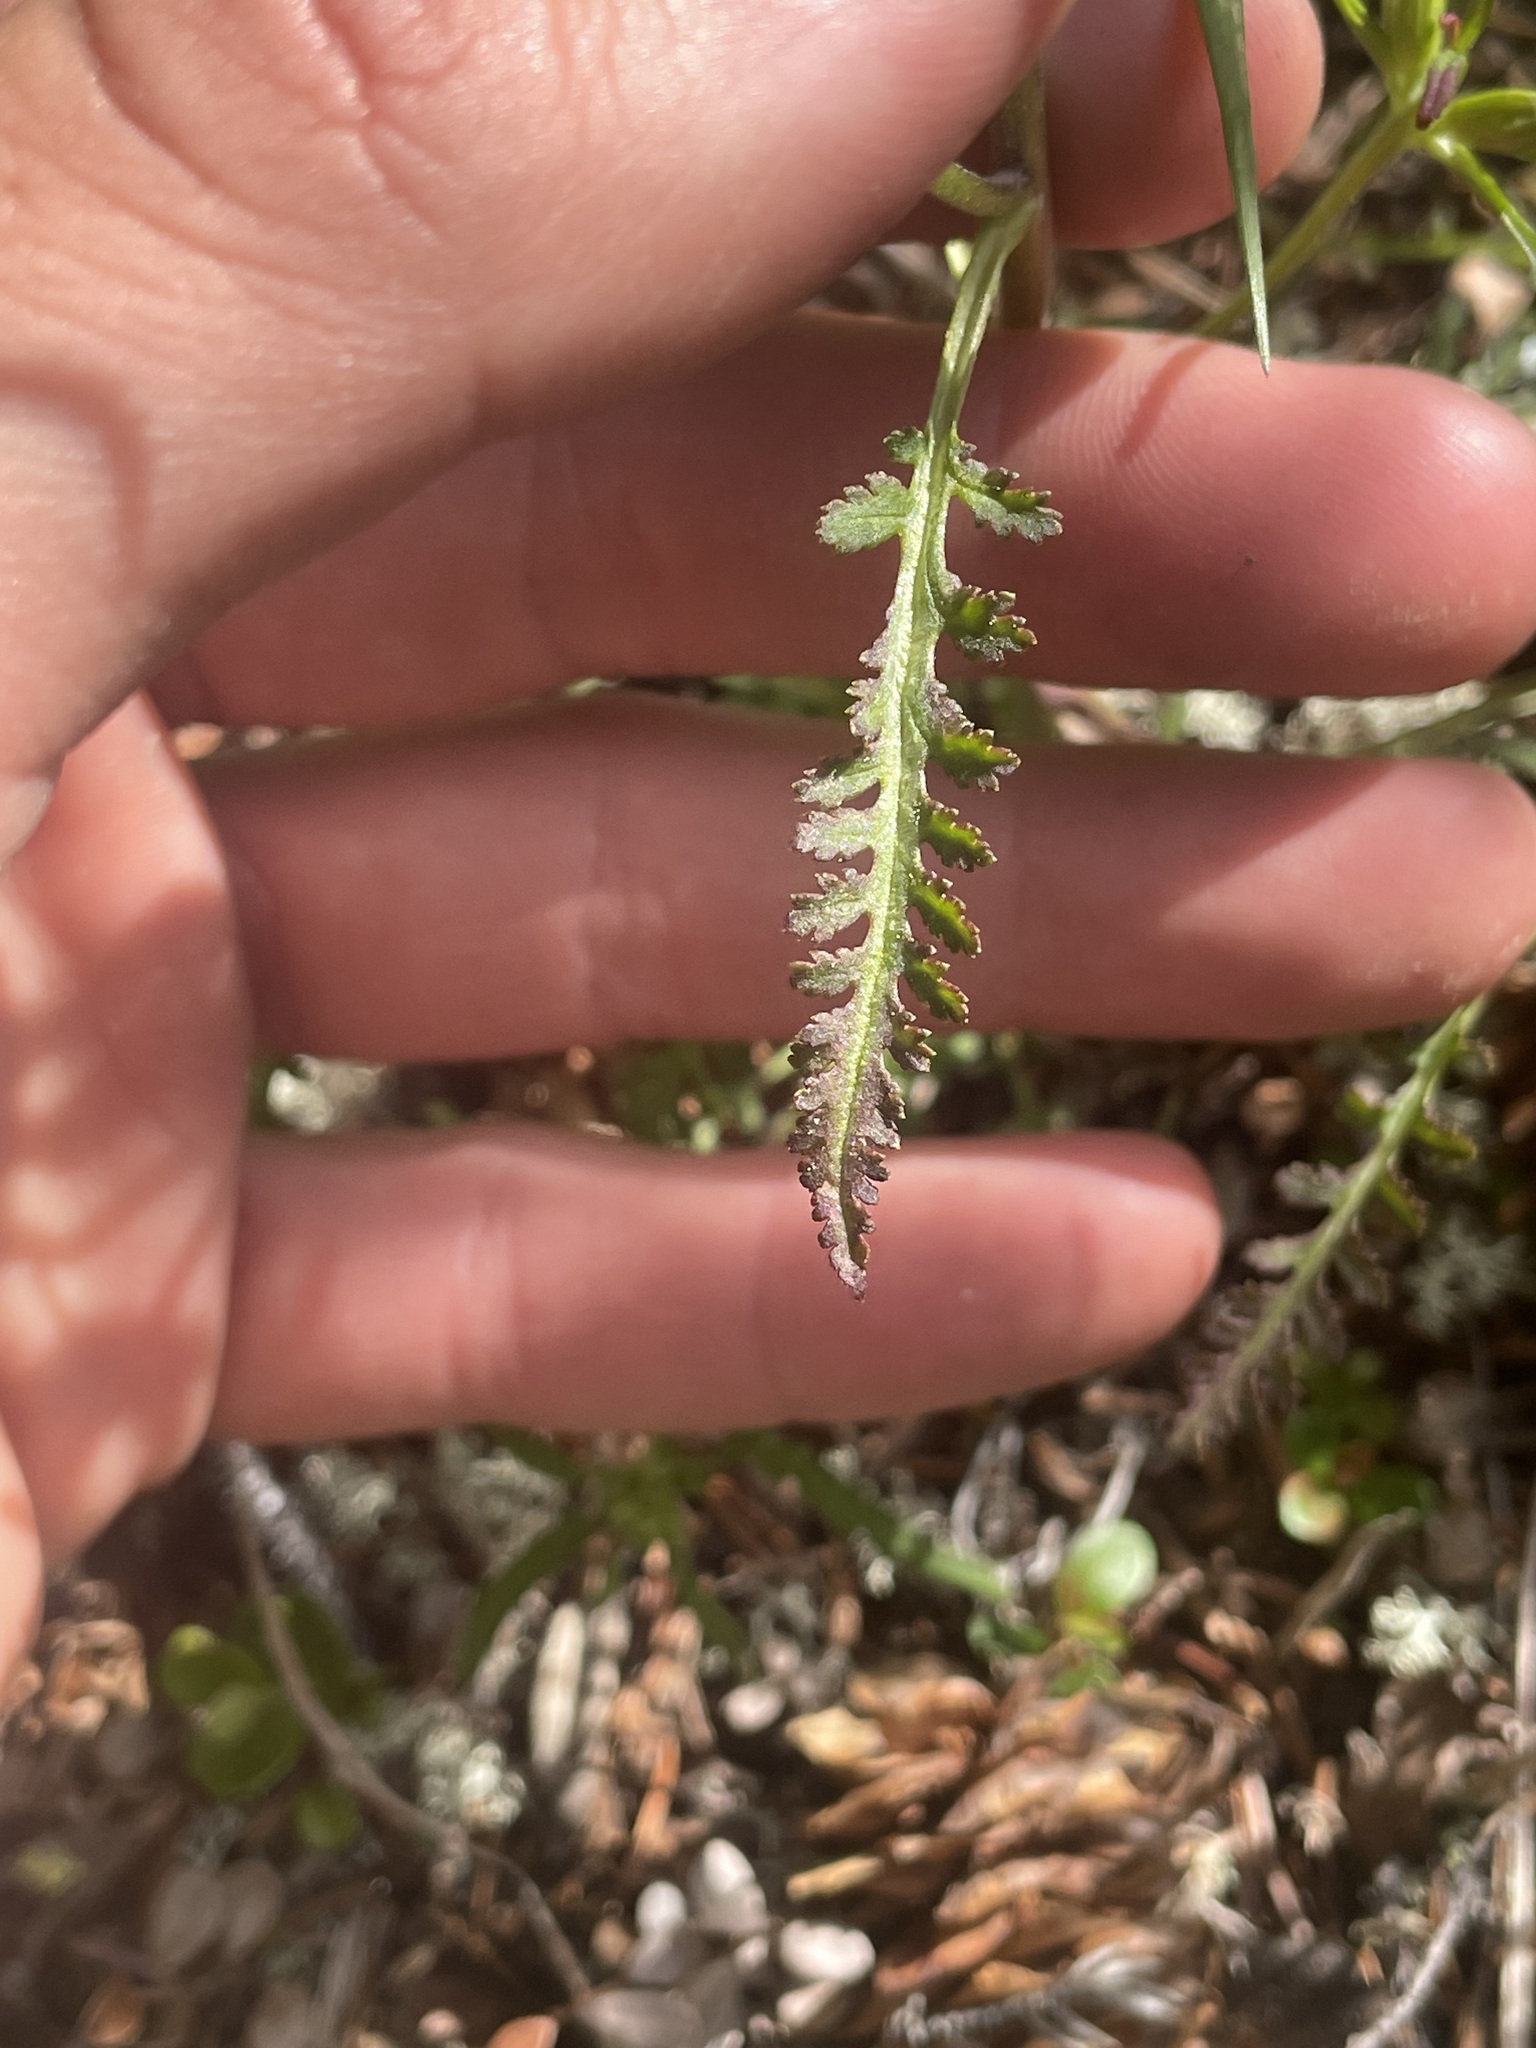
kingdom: Plantae
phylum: Tracheophyta
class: Magnoliopsida
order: Lamiales
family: Orobanchaceae
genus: Pedicularis
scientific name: Pedicularis labradorica
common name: Labrador lousewort
